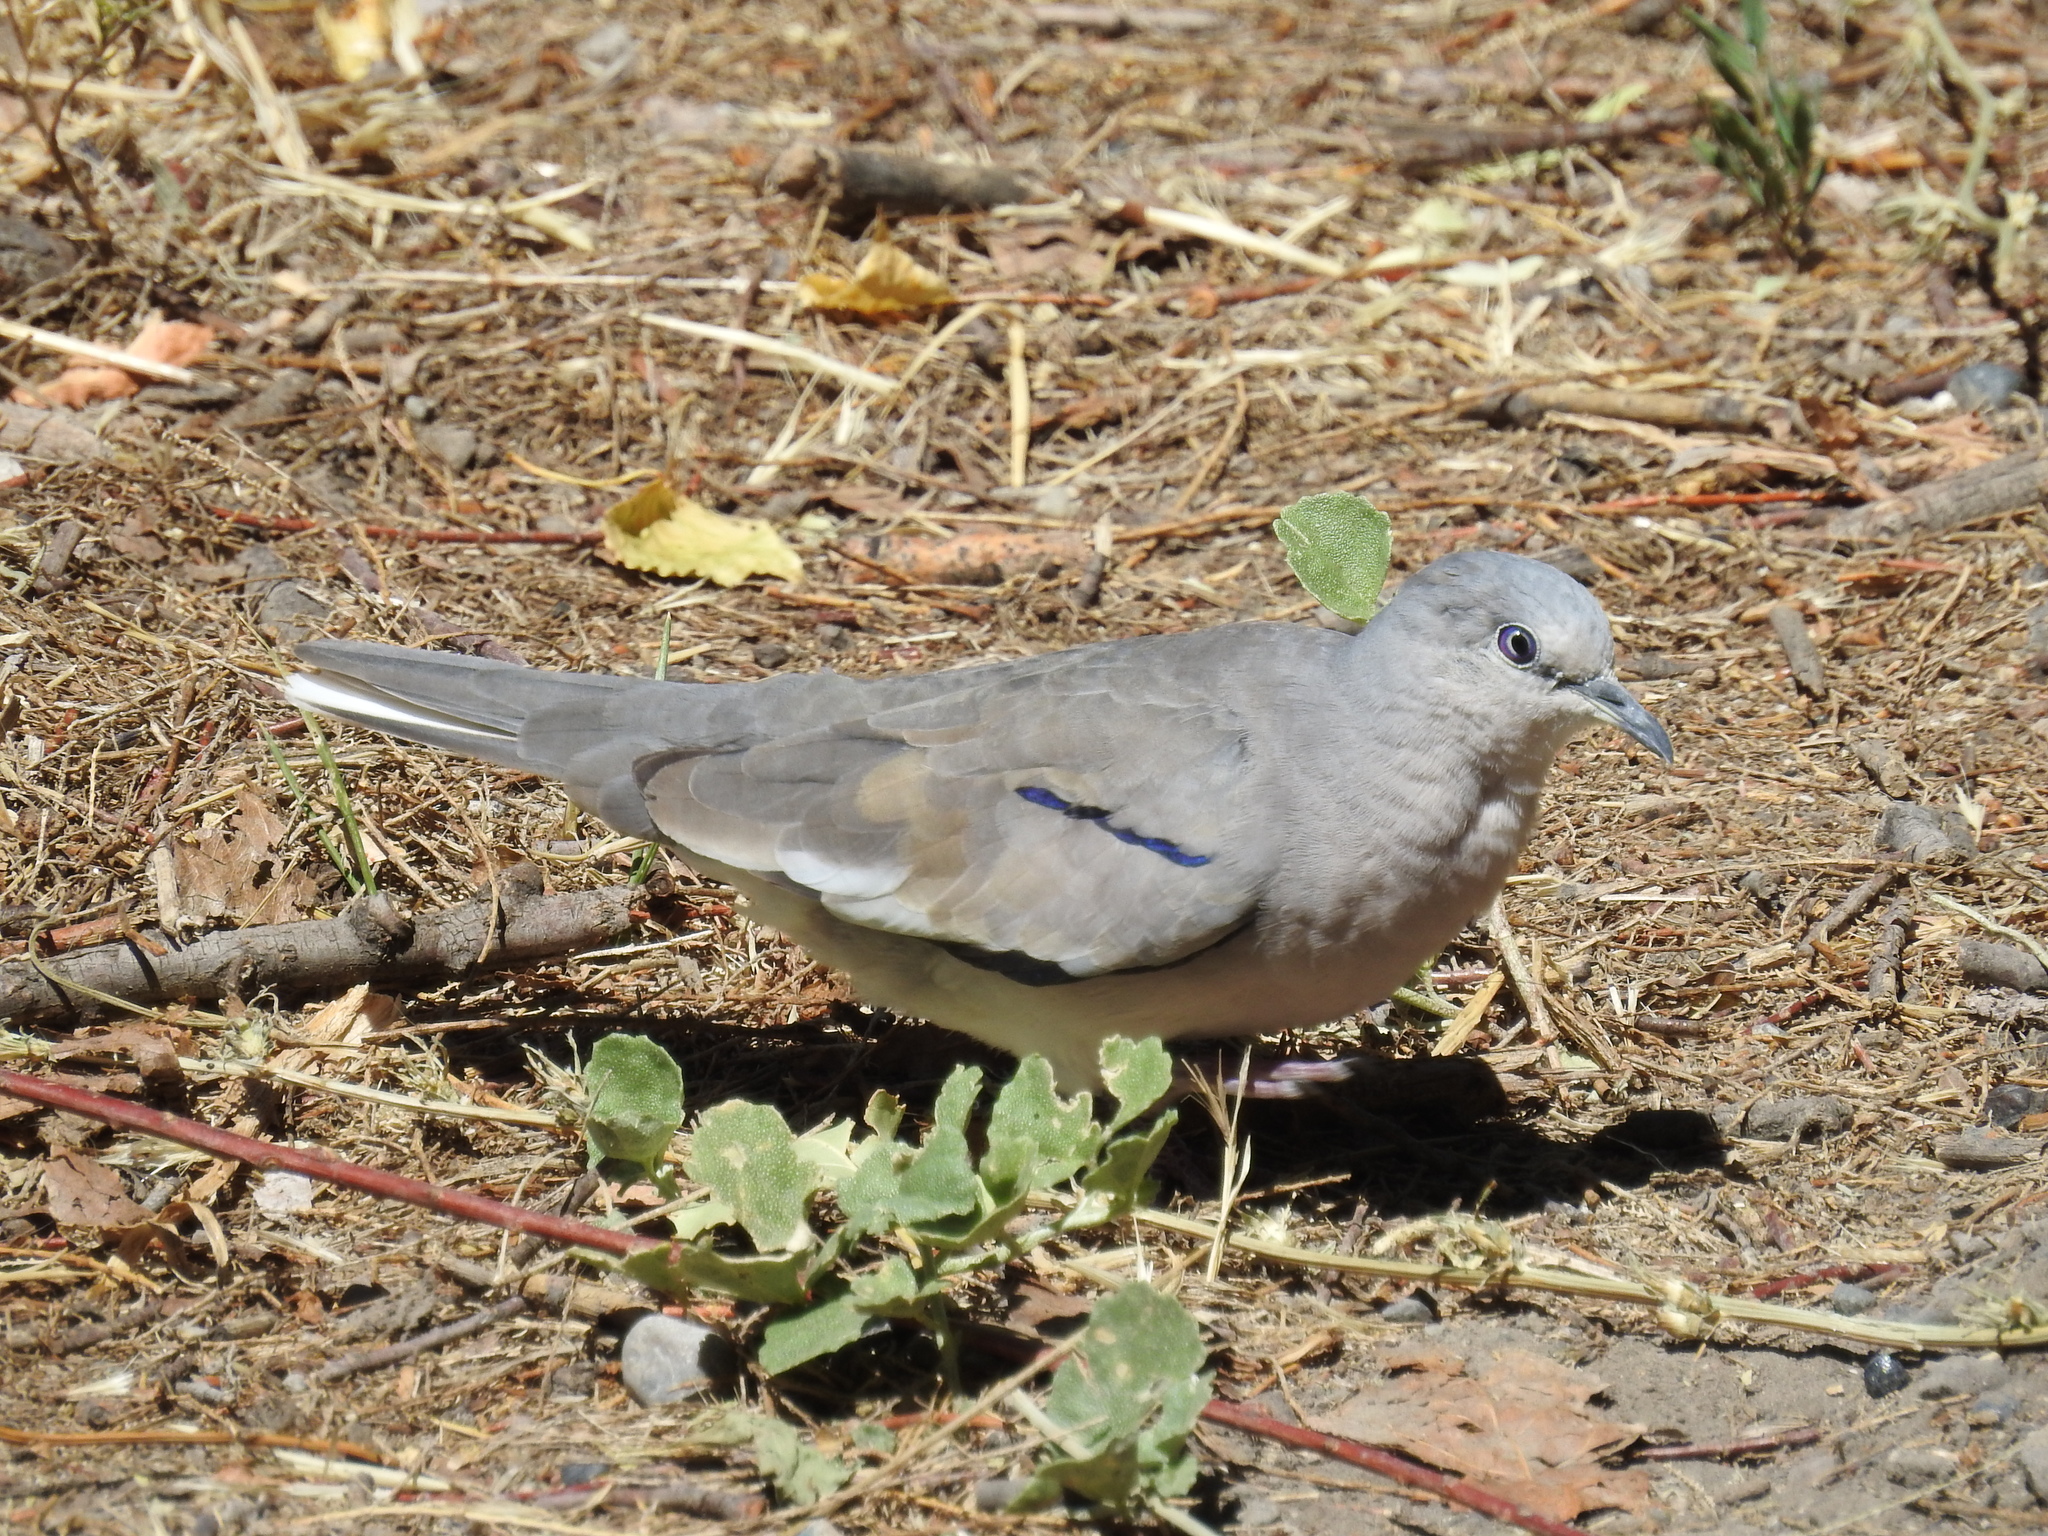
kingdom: Animalia
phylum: Chordata
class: Aves
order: Columbiformes
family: Columbidae
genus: Columbina
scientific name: Columbina picui
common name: Picui ground dove
